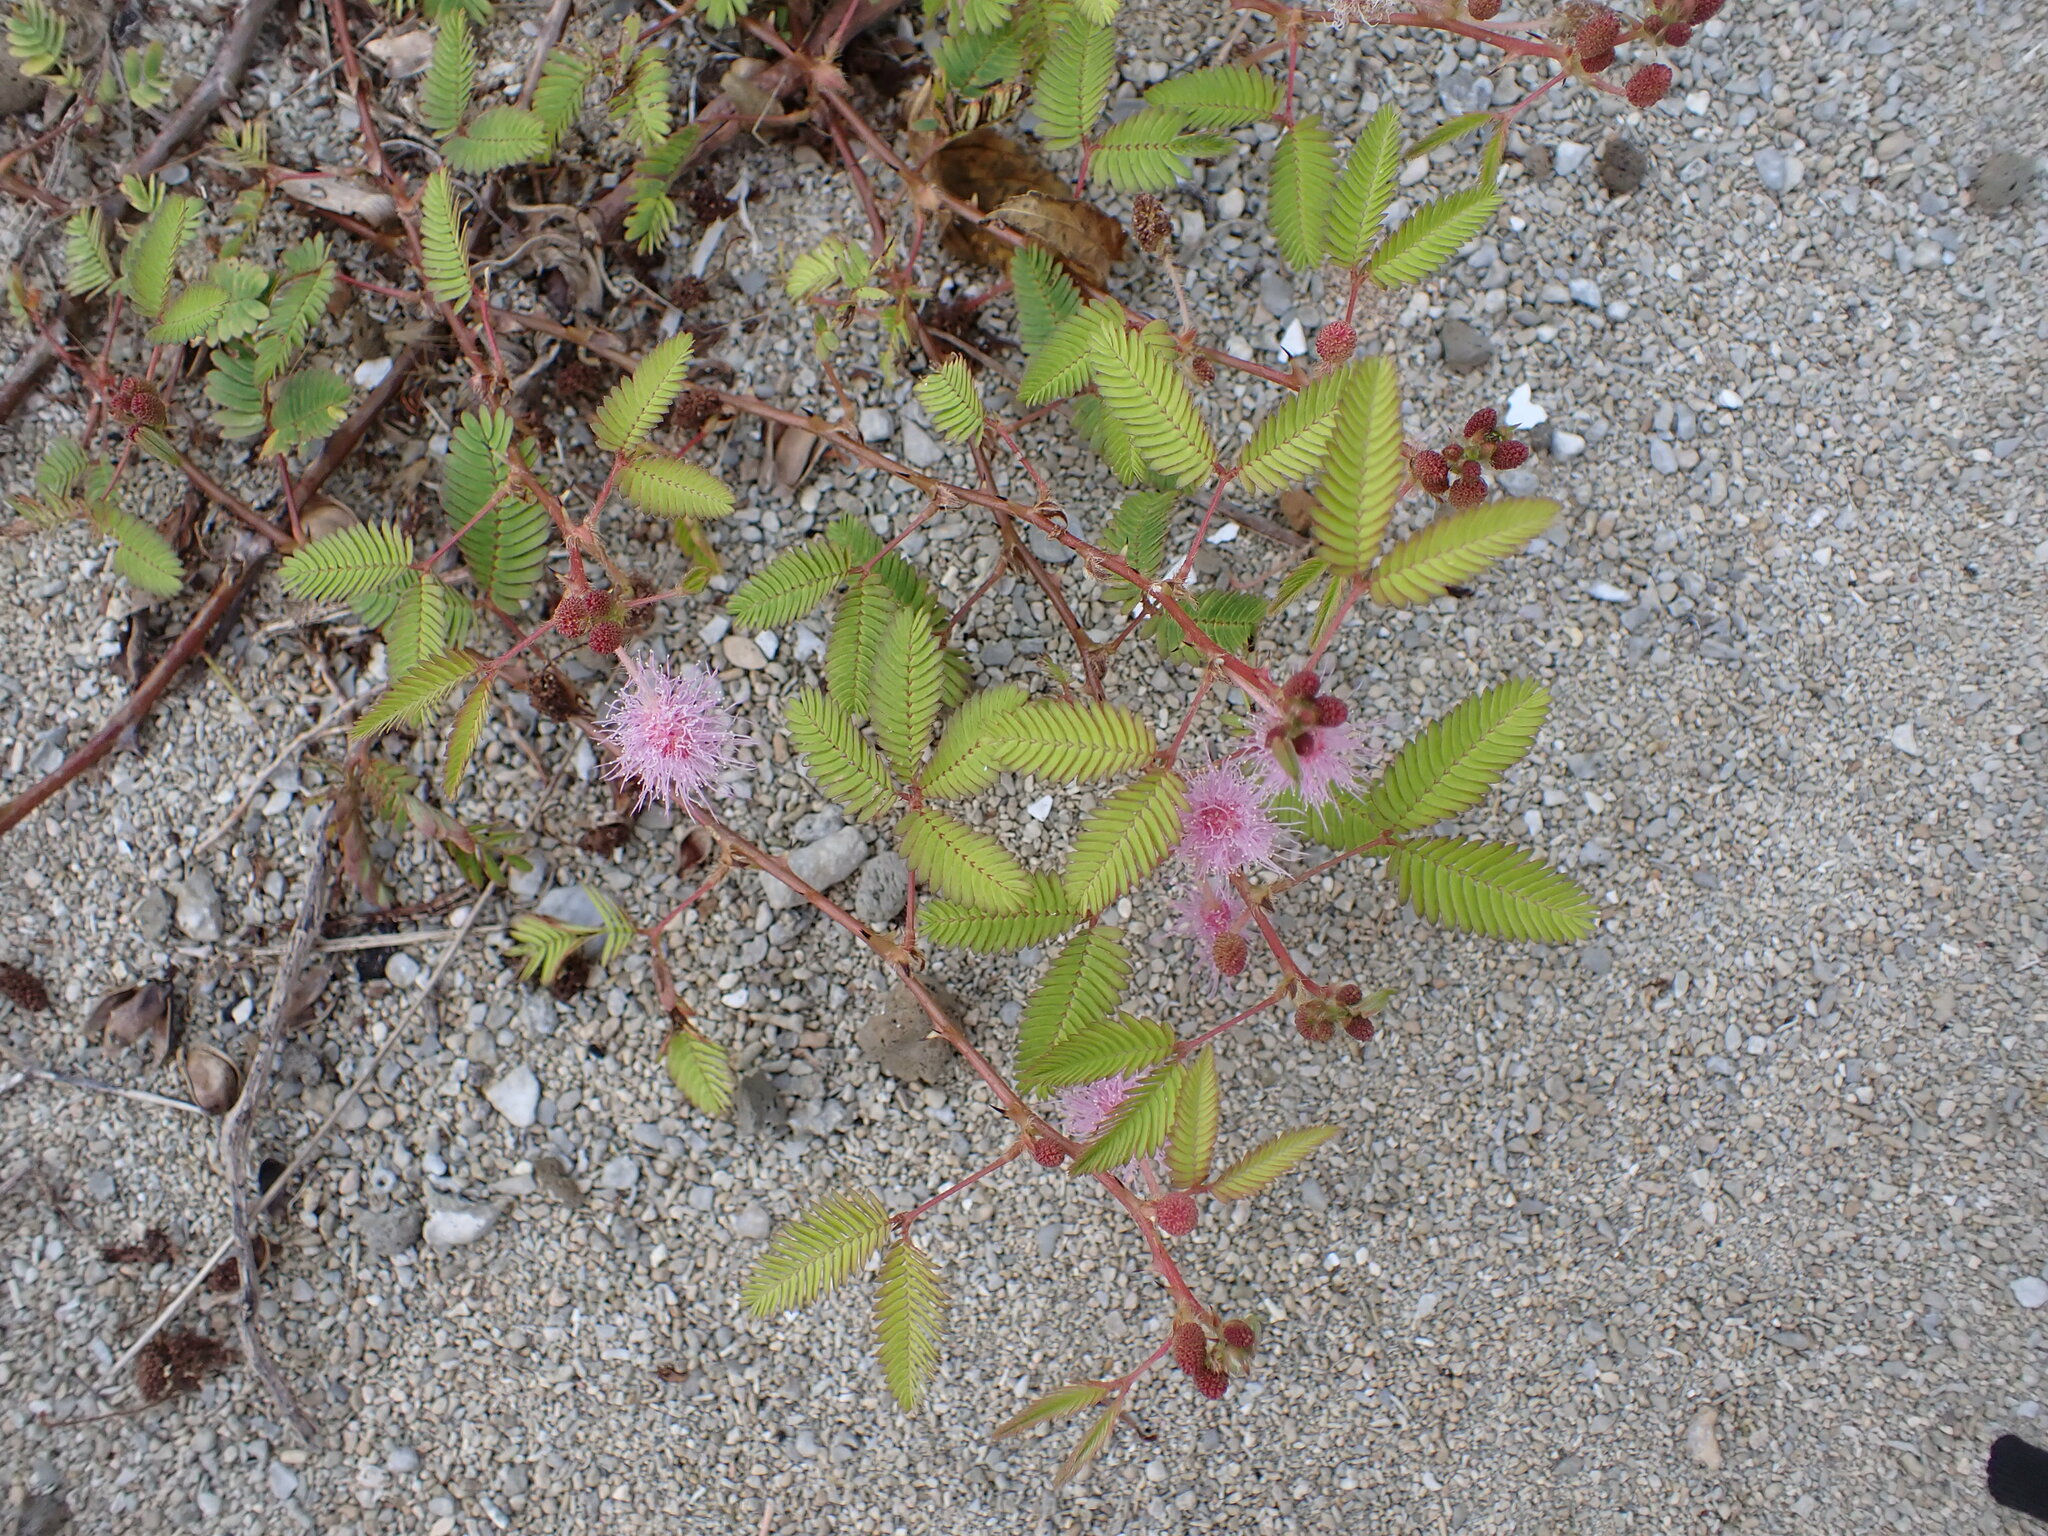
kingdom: Plantae
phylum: Tracheophyta
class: Magnoliopsida
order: Fabales
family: Fabaceae
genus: Mimosa
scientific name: Mimosa pudica
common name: Sensitive plant
